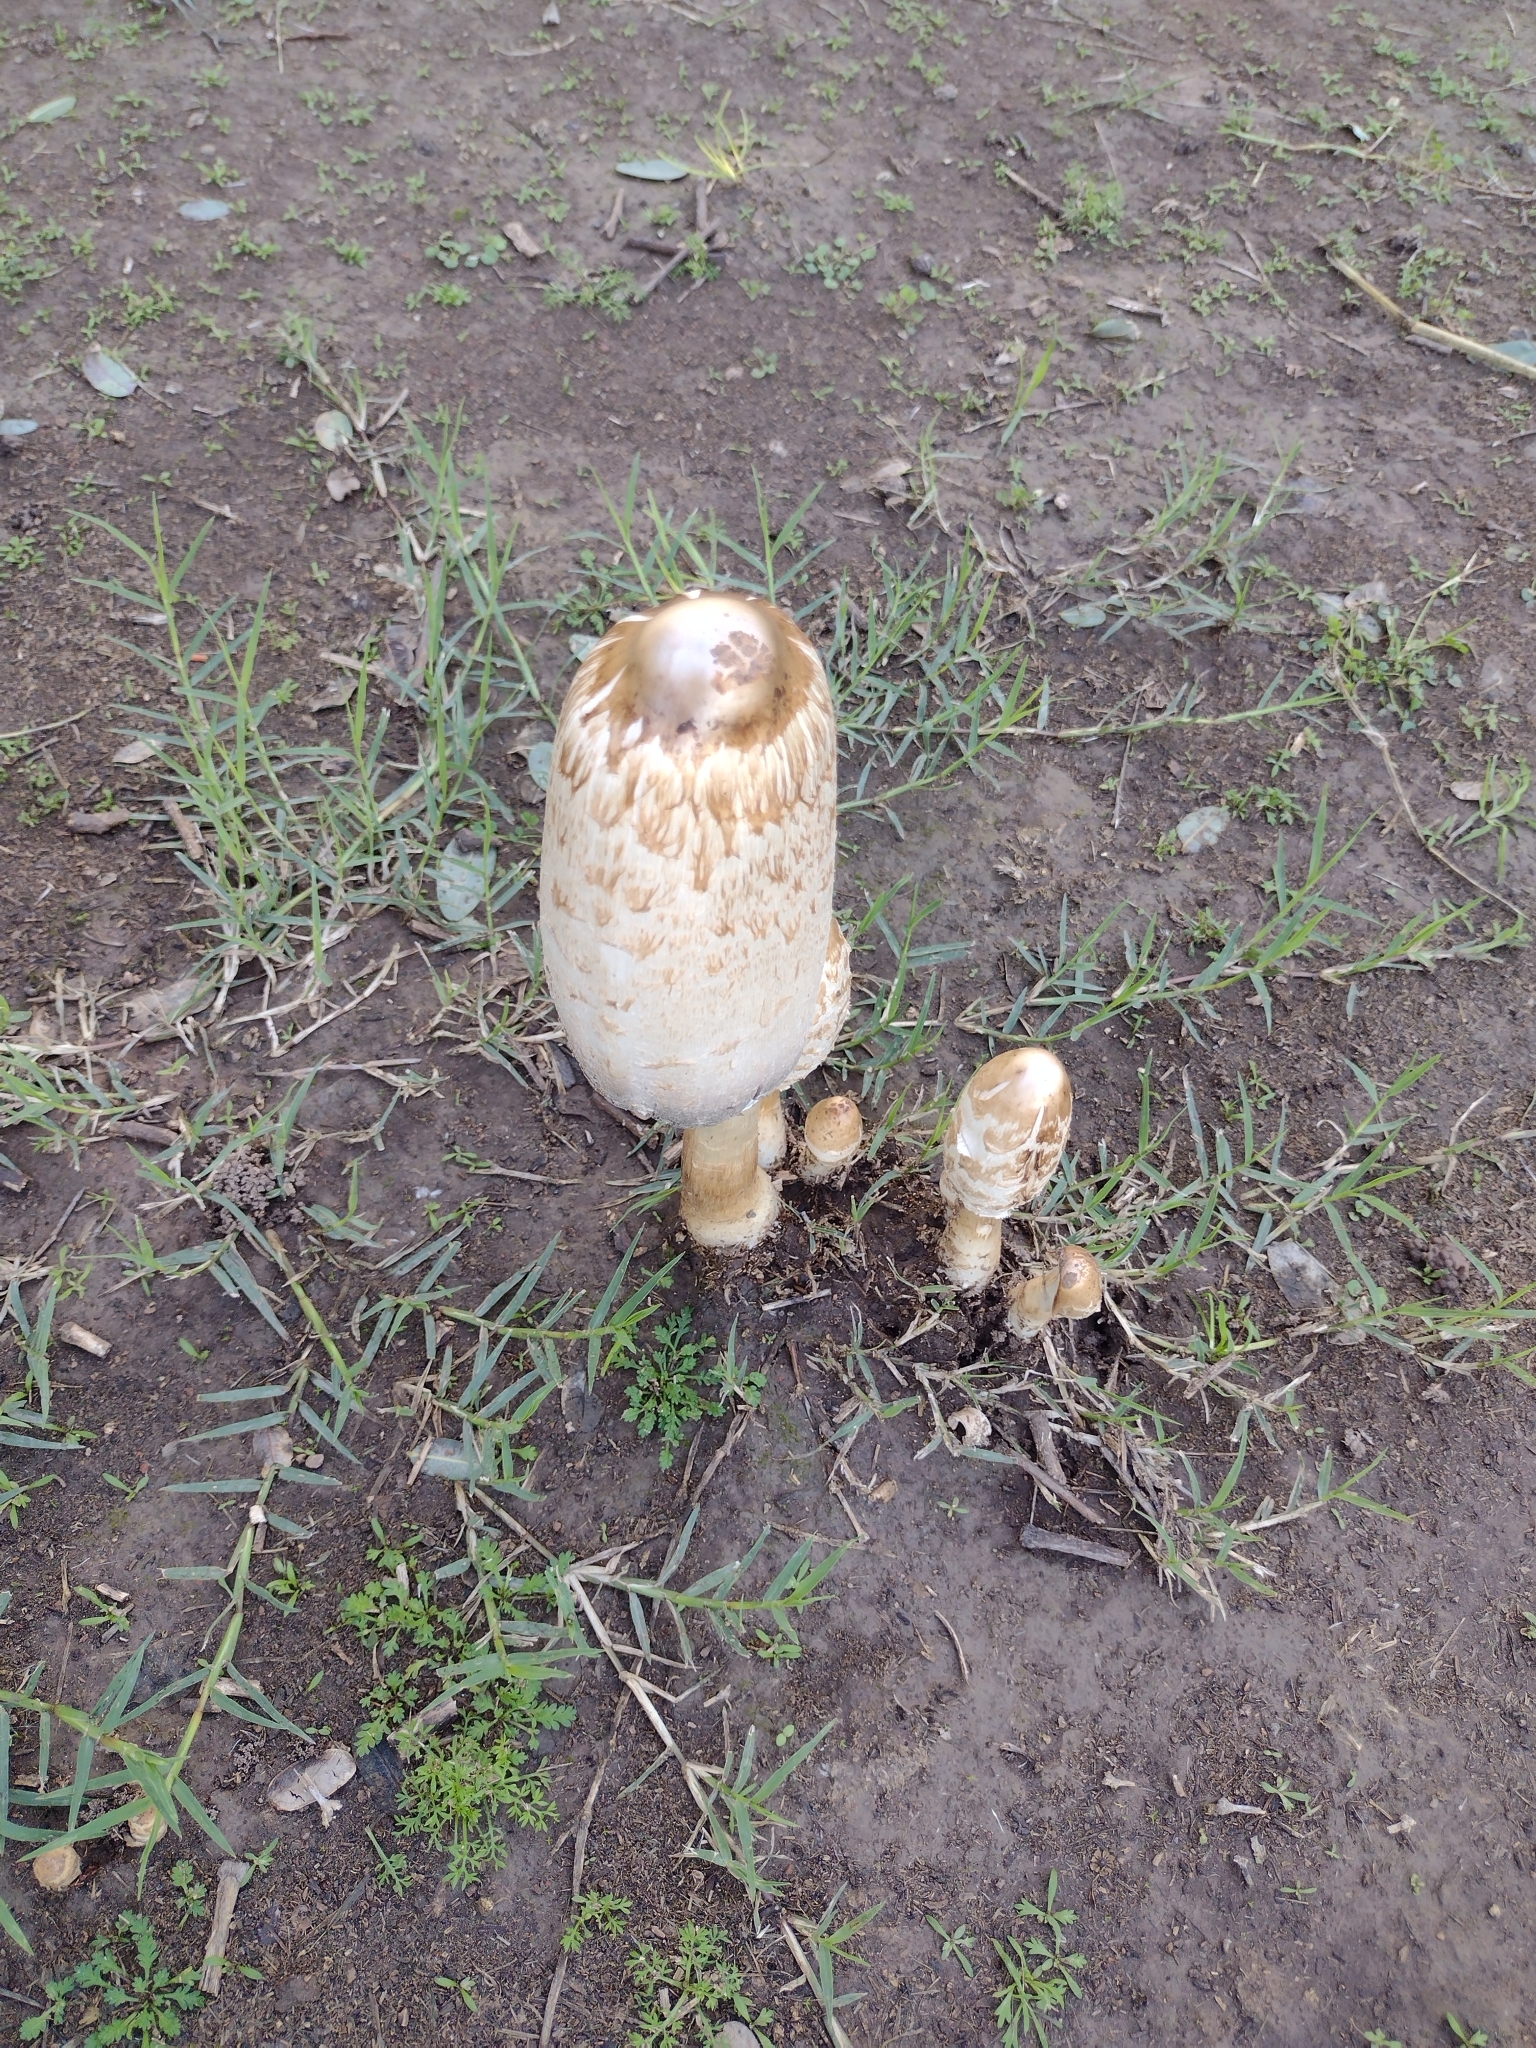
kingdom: Fungi
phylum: Basidiomycota
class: Agaricomycetes
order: Agaricales
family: Agaricaceae
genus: Coprinus
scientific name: Coprinus comatus
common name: Lawyer's wig
